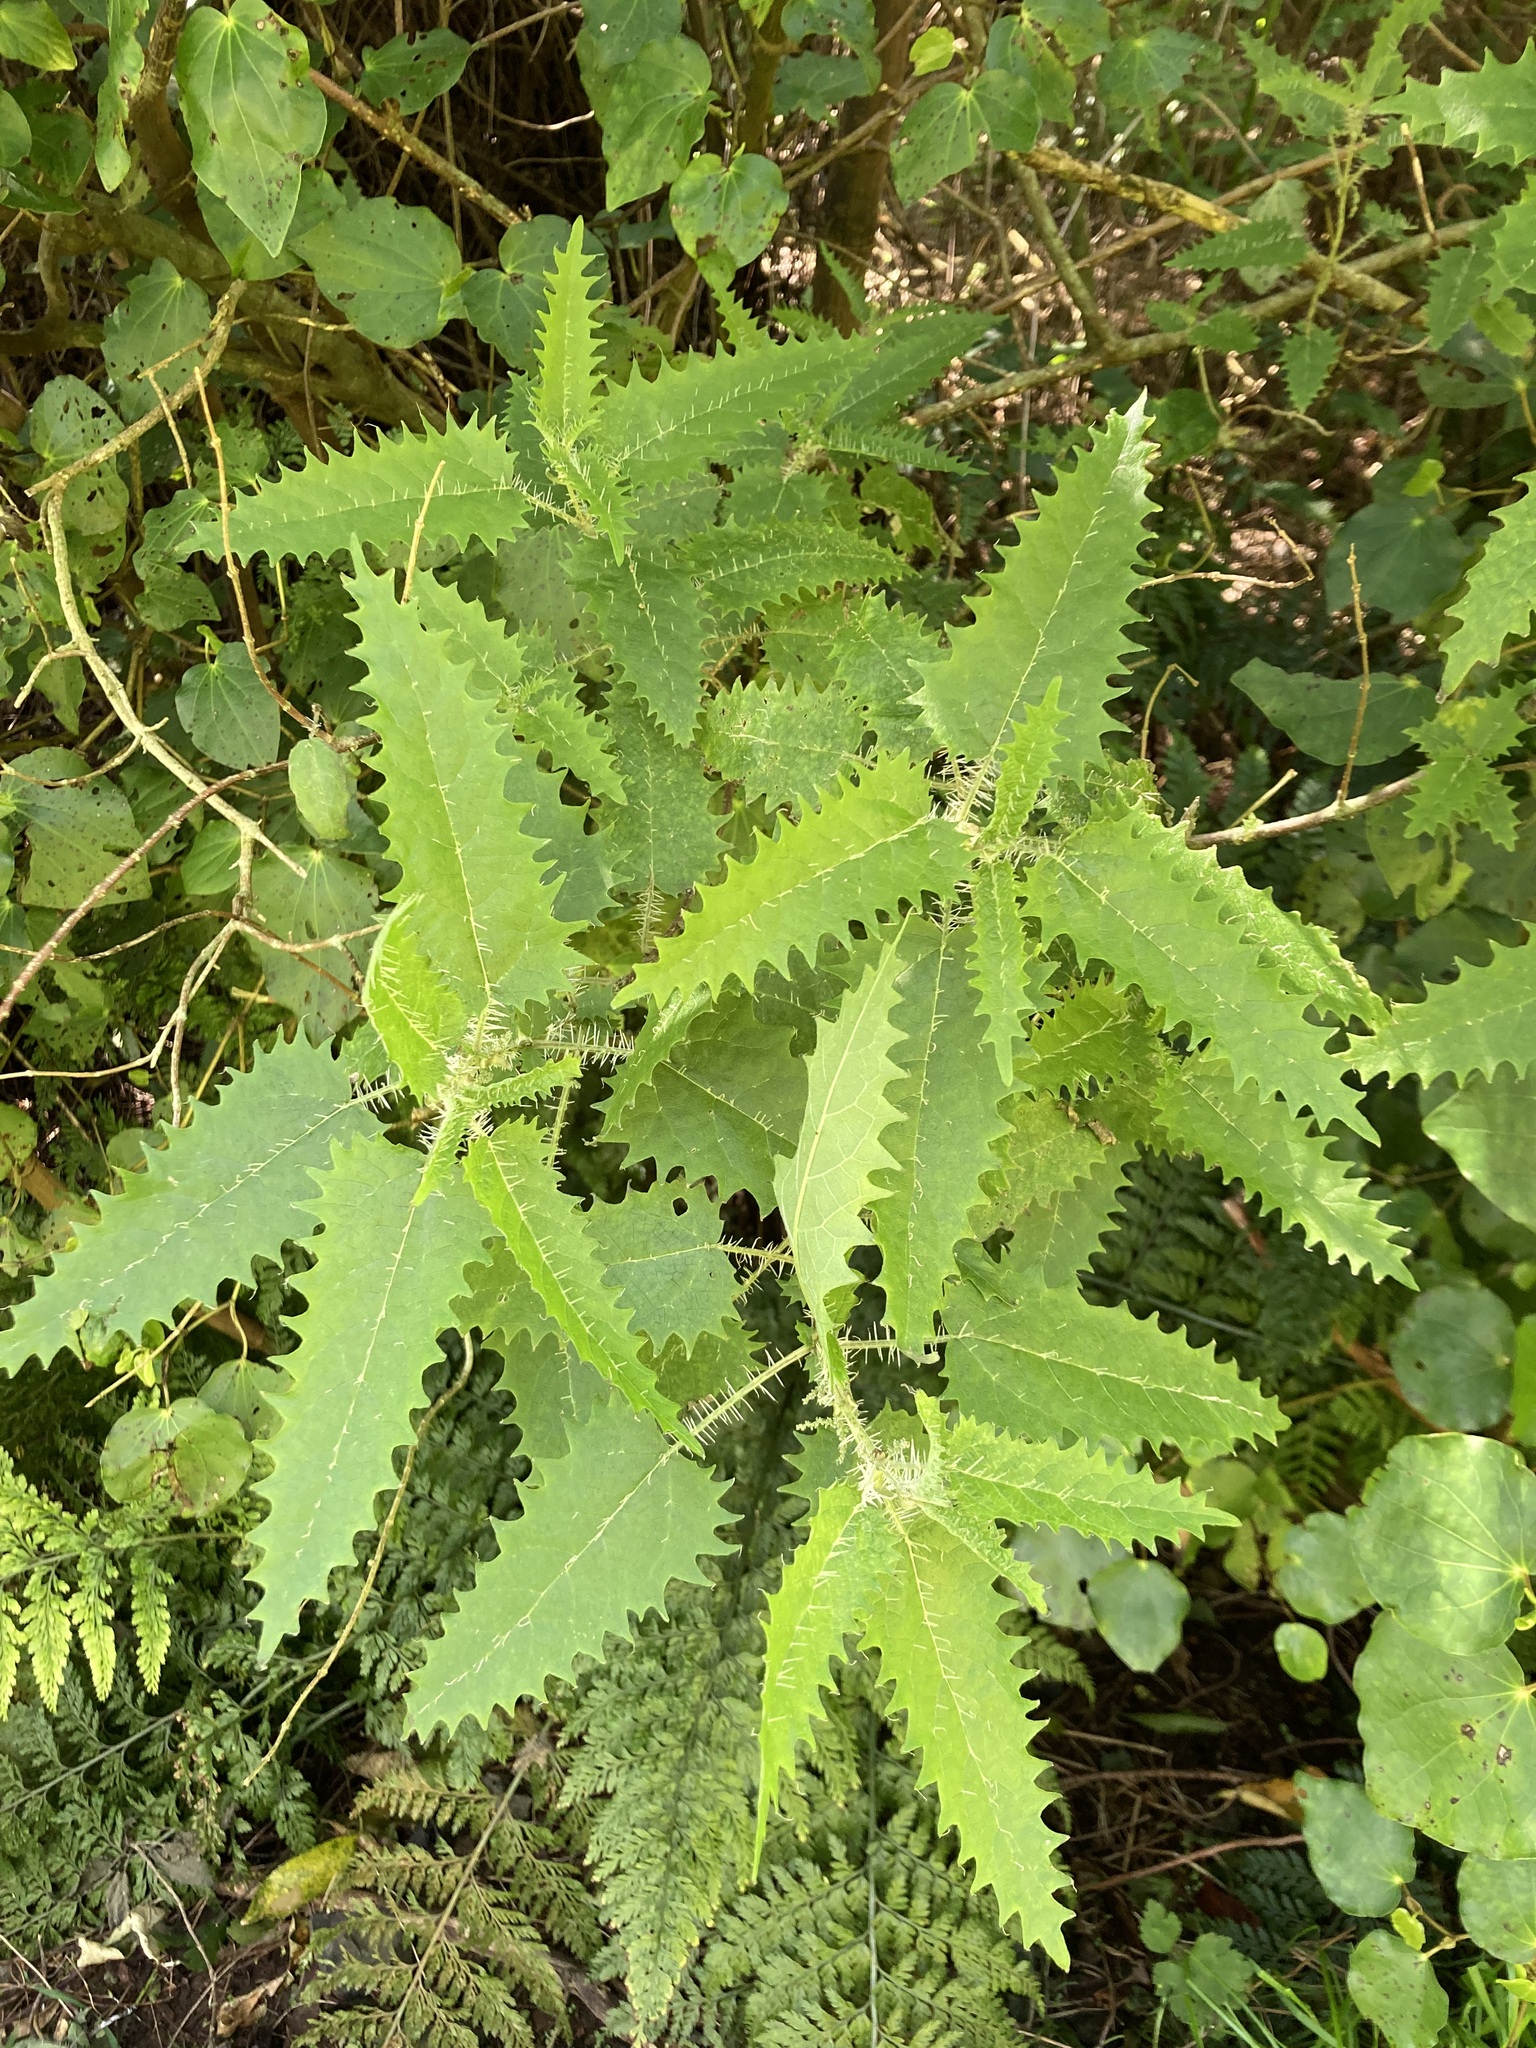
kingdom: Plantae
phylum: Tracheophyta
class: Magnoliopsida
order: Rosales
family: Urticaceae
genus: Urtica
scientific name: Urtica ferox
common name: Tree nettle
